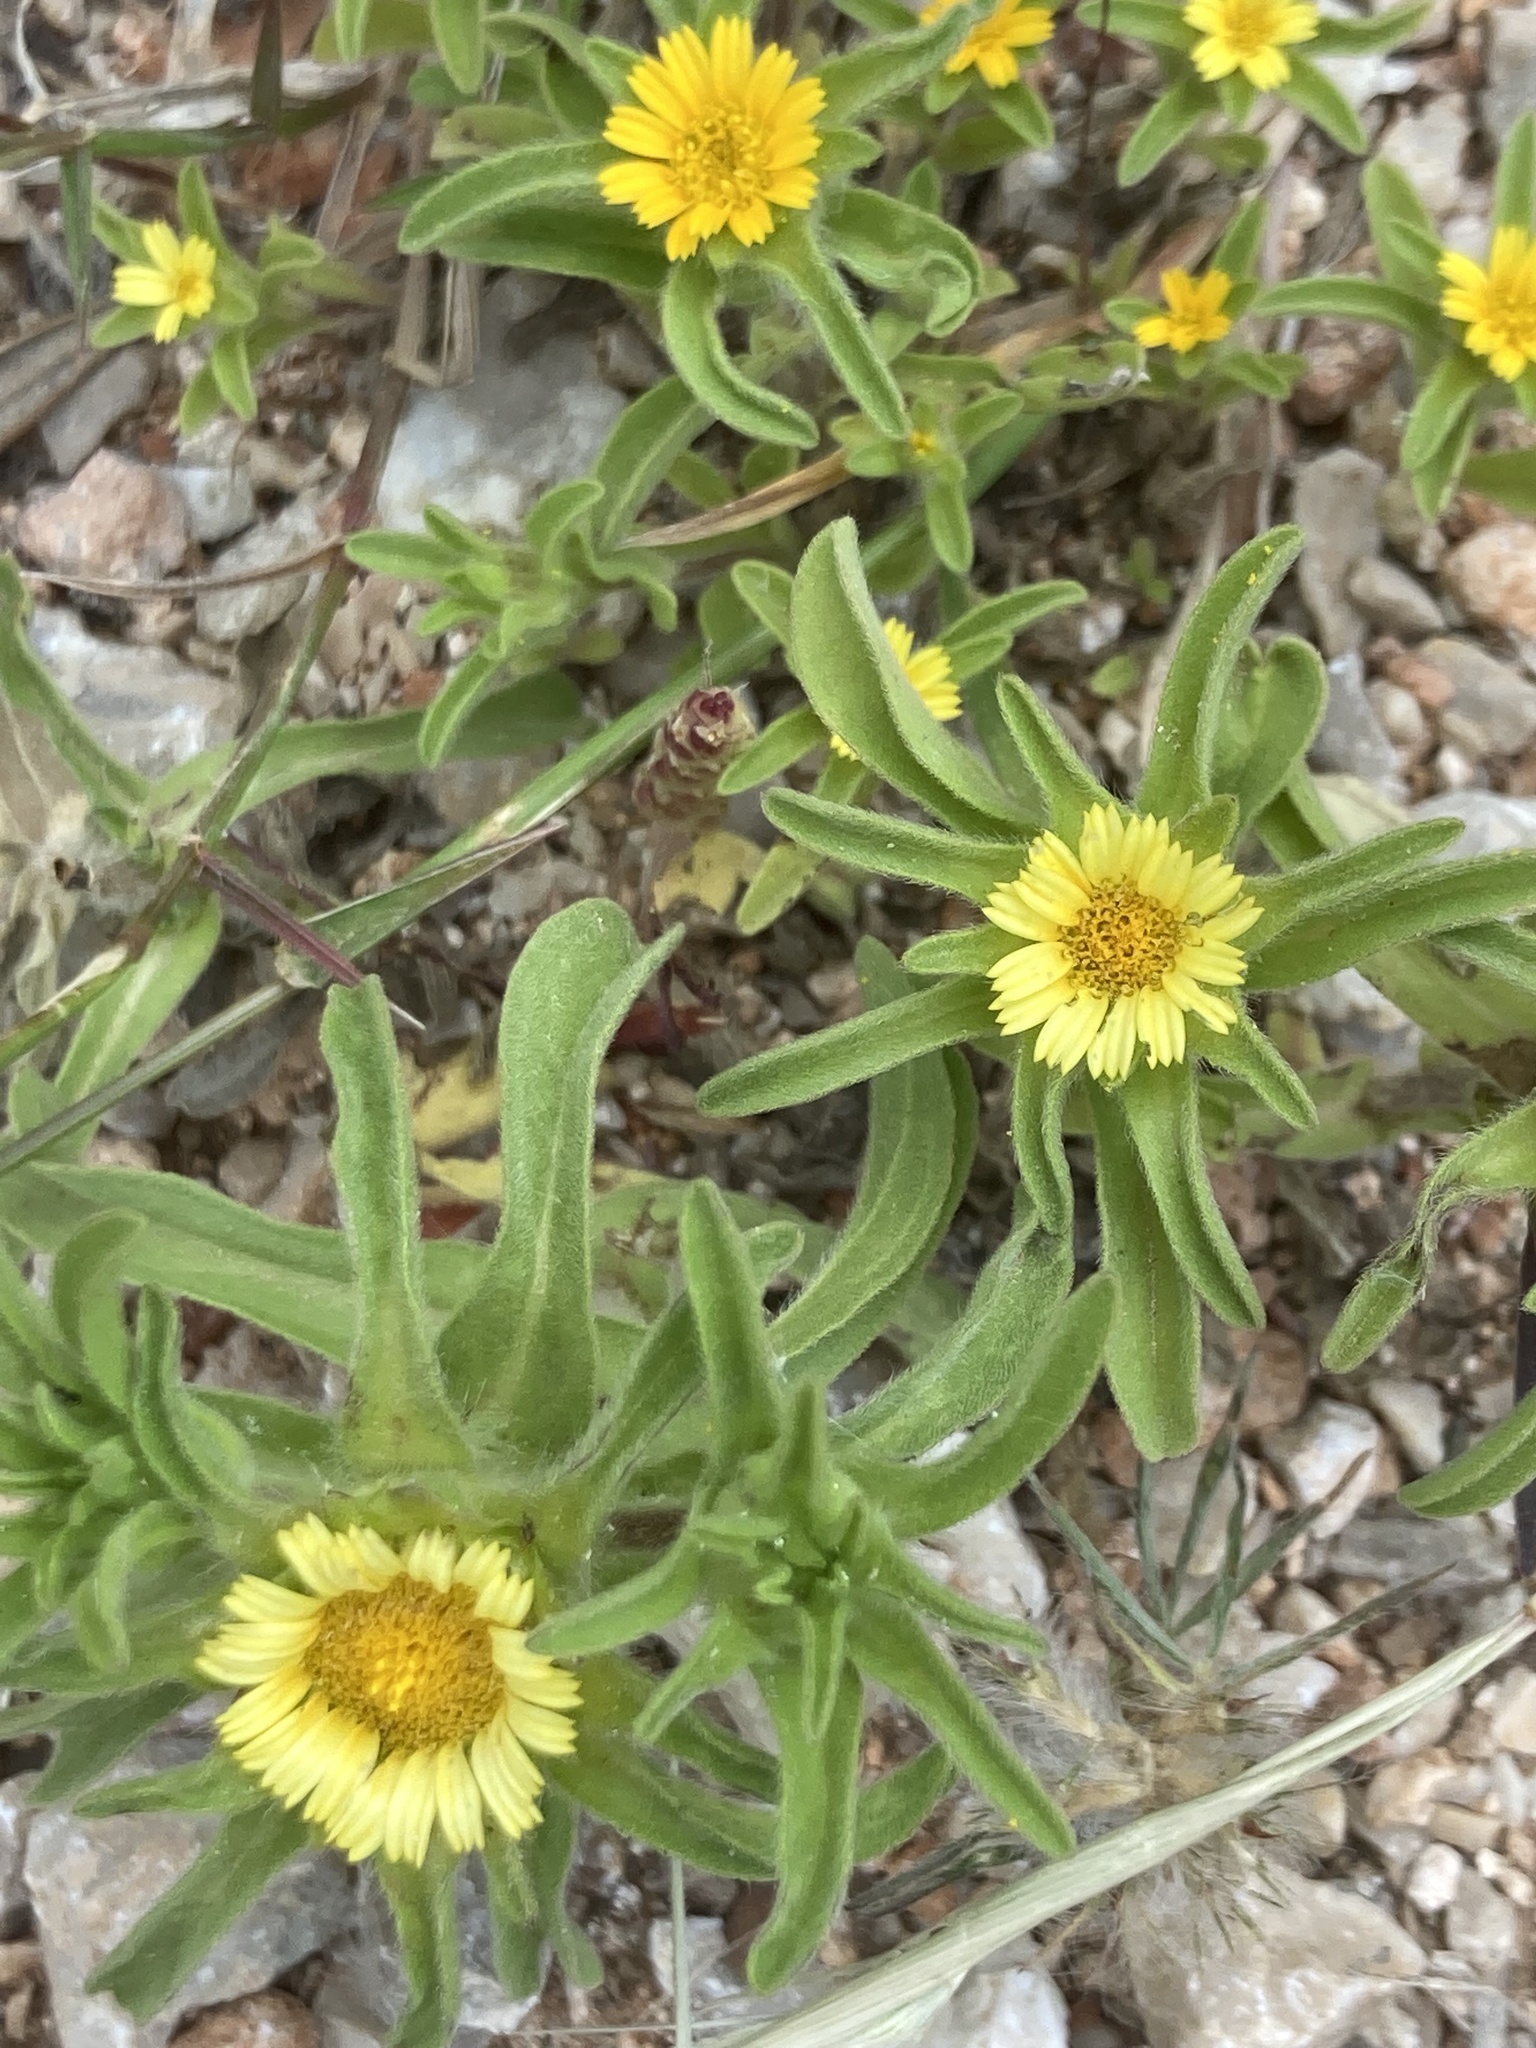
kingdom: Plantae
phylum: Tracheophyta
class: Magnoliopsida
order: Asterales
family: Asteraceae
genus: Asteriscus
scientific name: Asteriscus aquaticus
